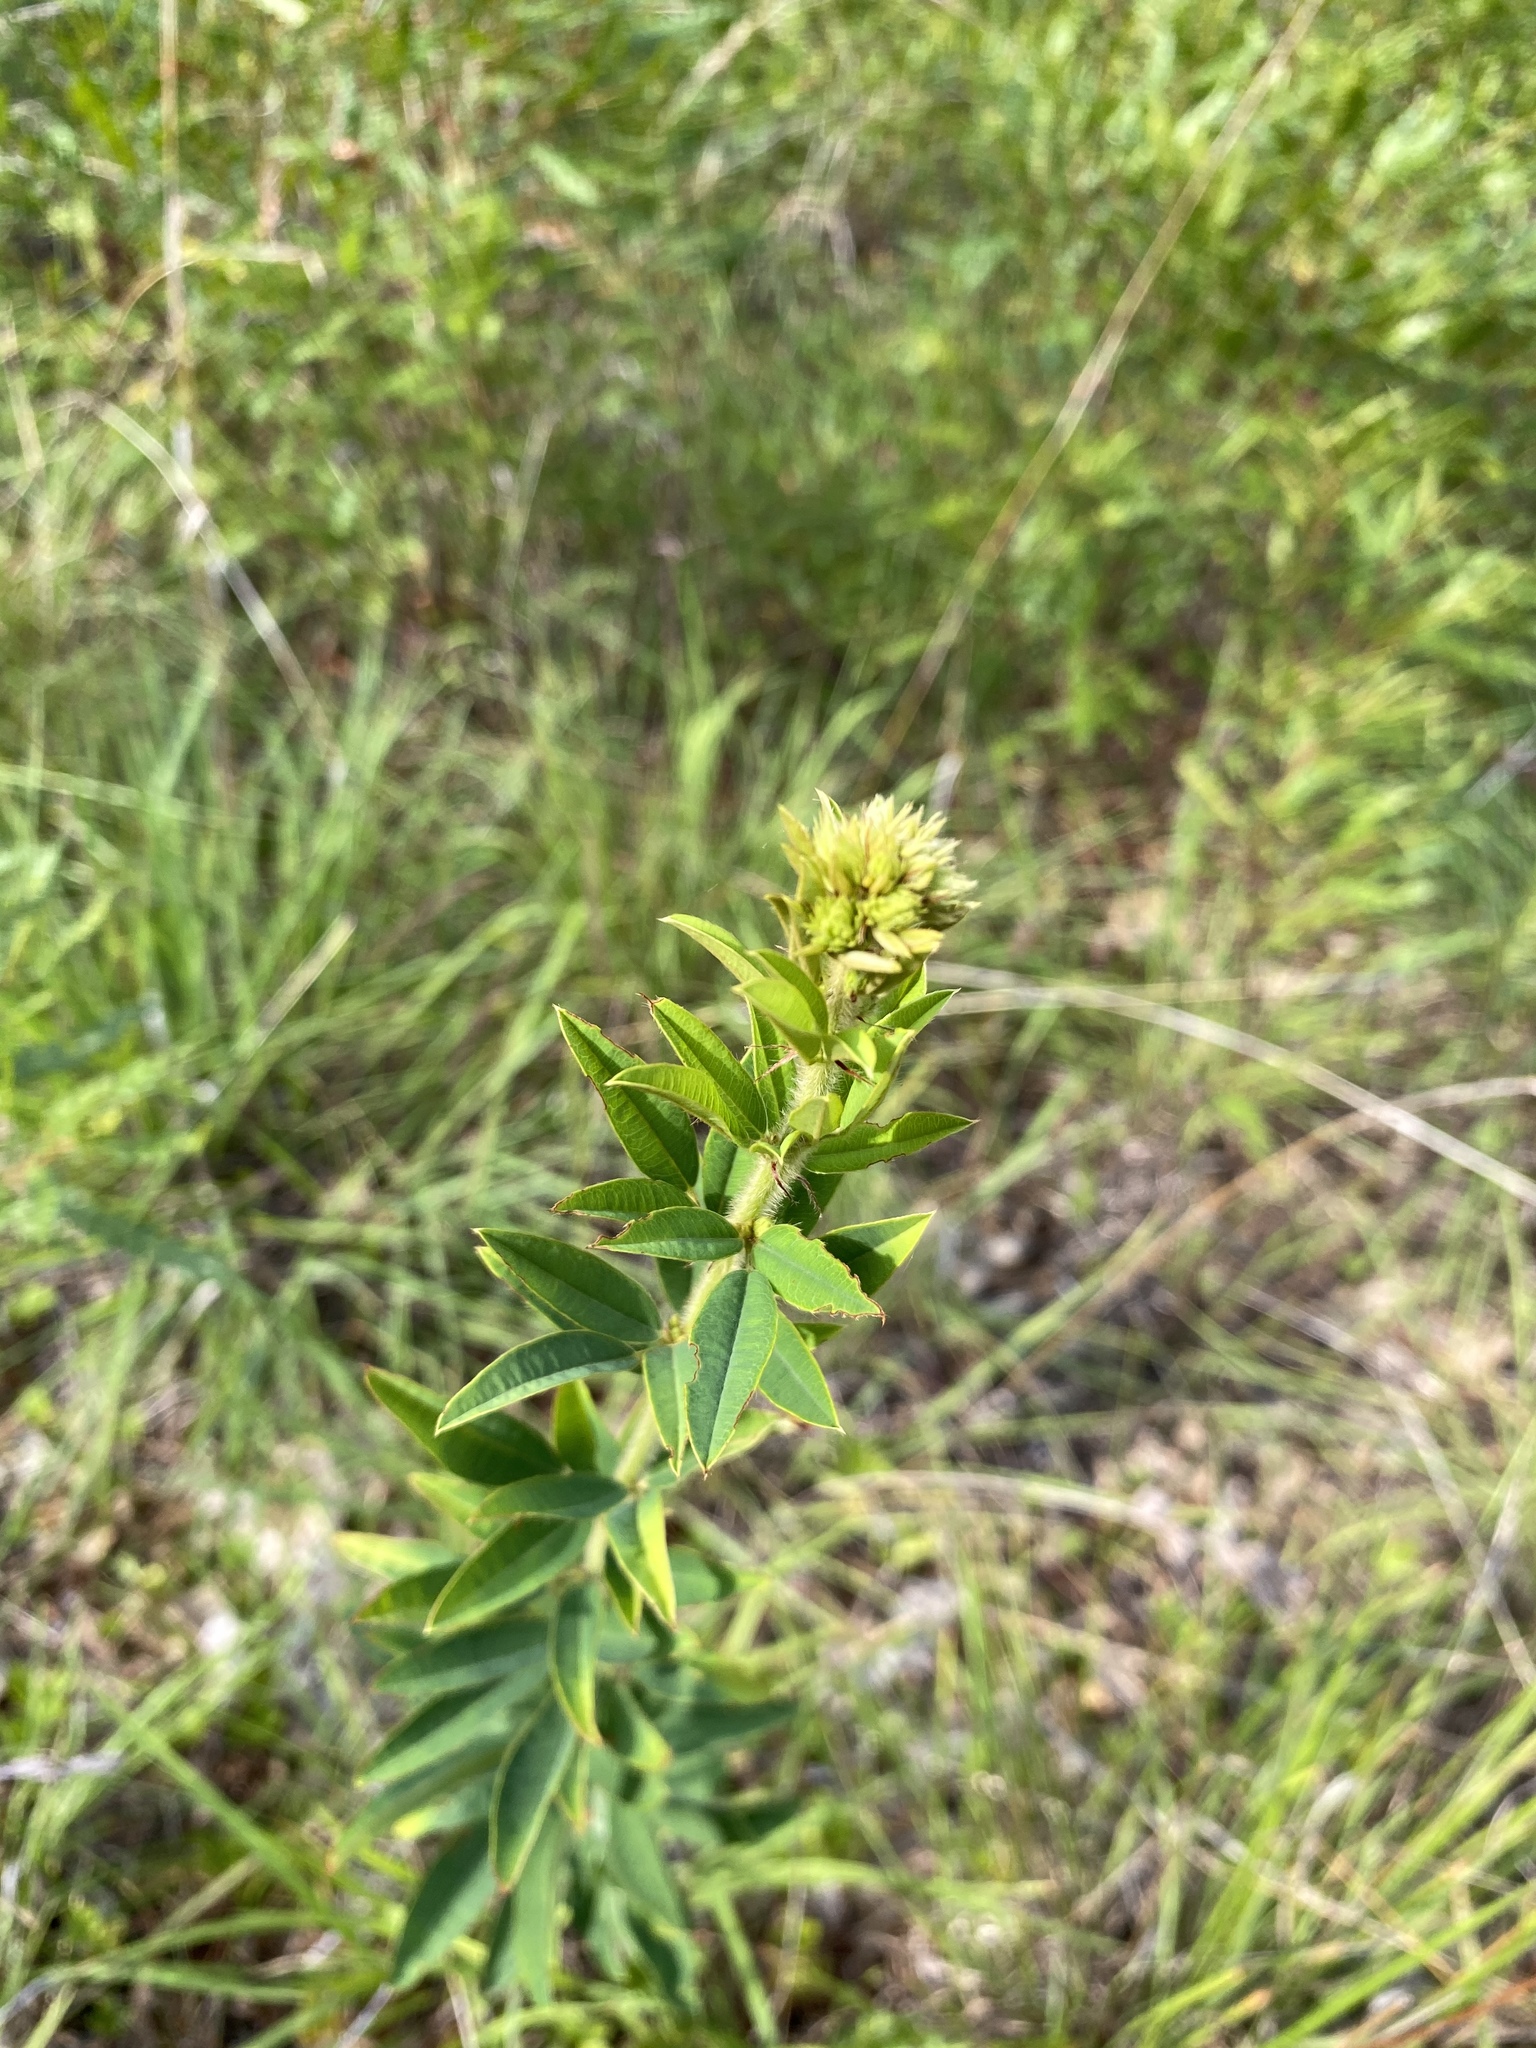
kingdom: Plantae
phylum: Tracheophyta
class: Magnoliopsida
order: Fabales
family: Fabaceae
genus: Lespedeza
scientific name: Lespedeza capitata
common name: Dusty clover
